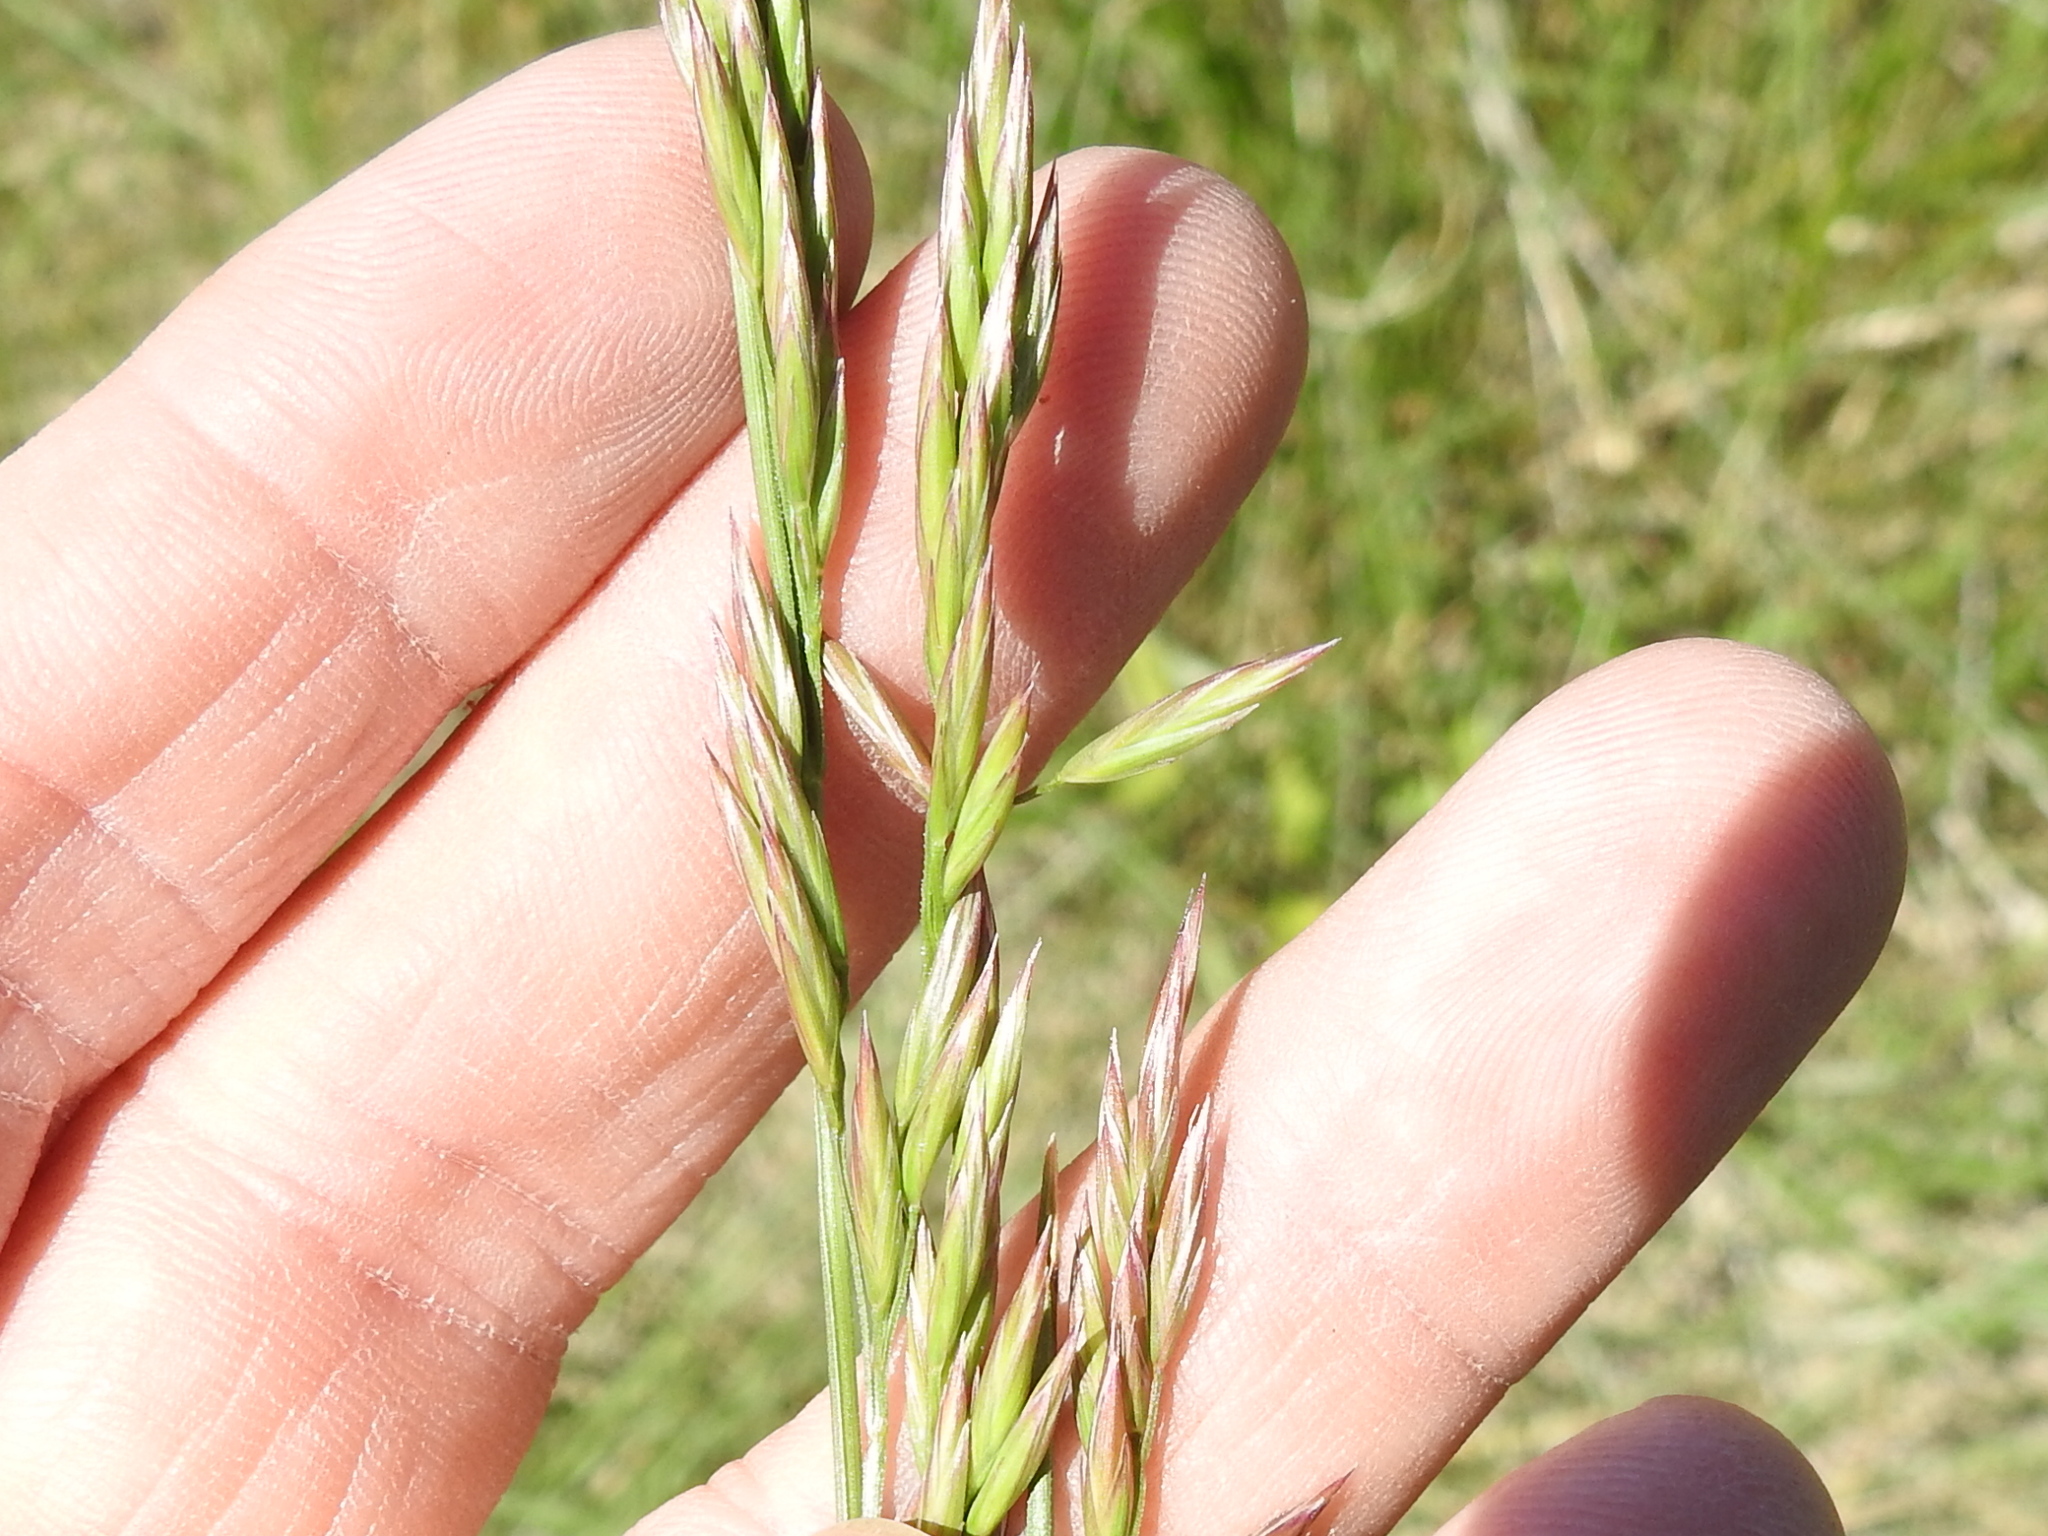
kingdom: Plantae
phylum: Tracheophyta
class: Liliopsida
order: Poales
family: Poaceae
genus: Lolium
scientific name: Lolium arundinaceum
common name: Reed fescue
